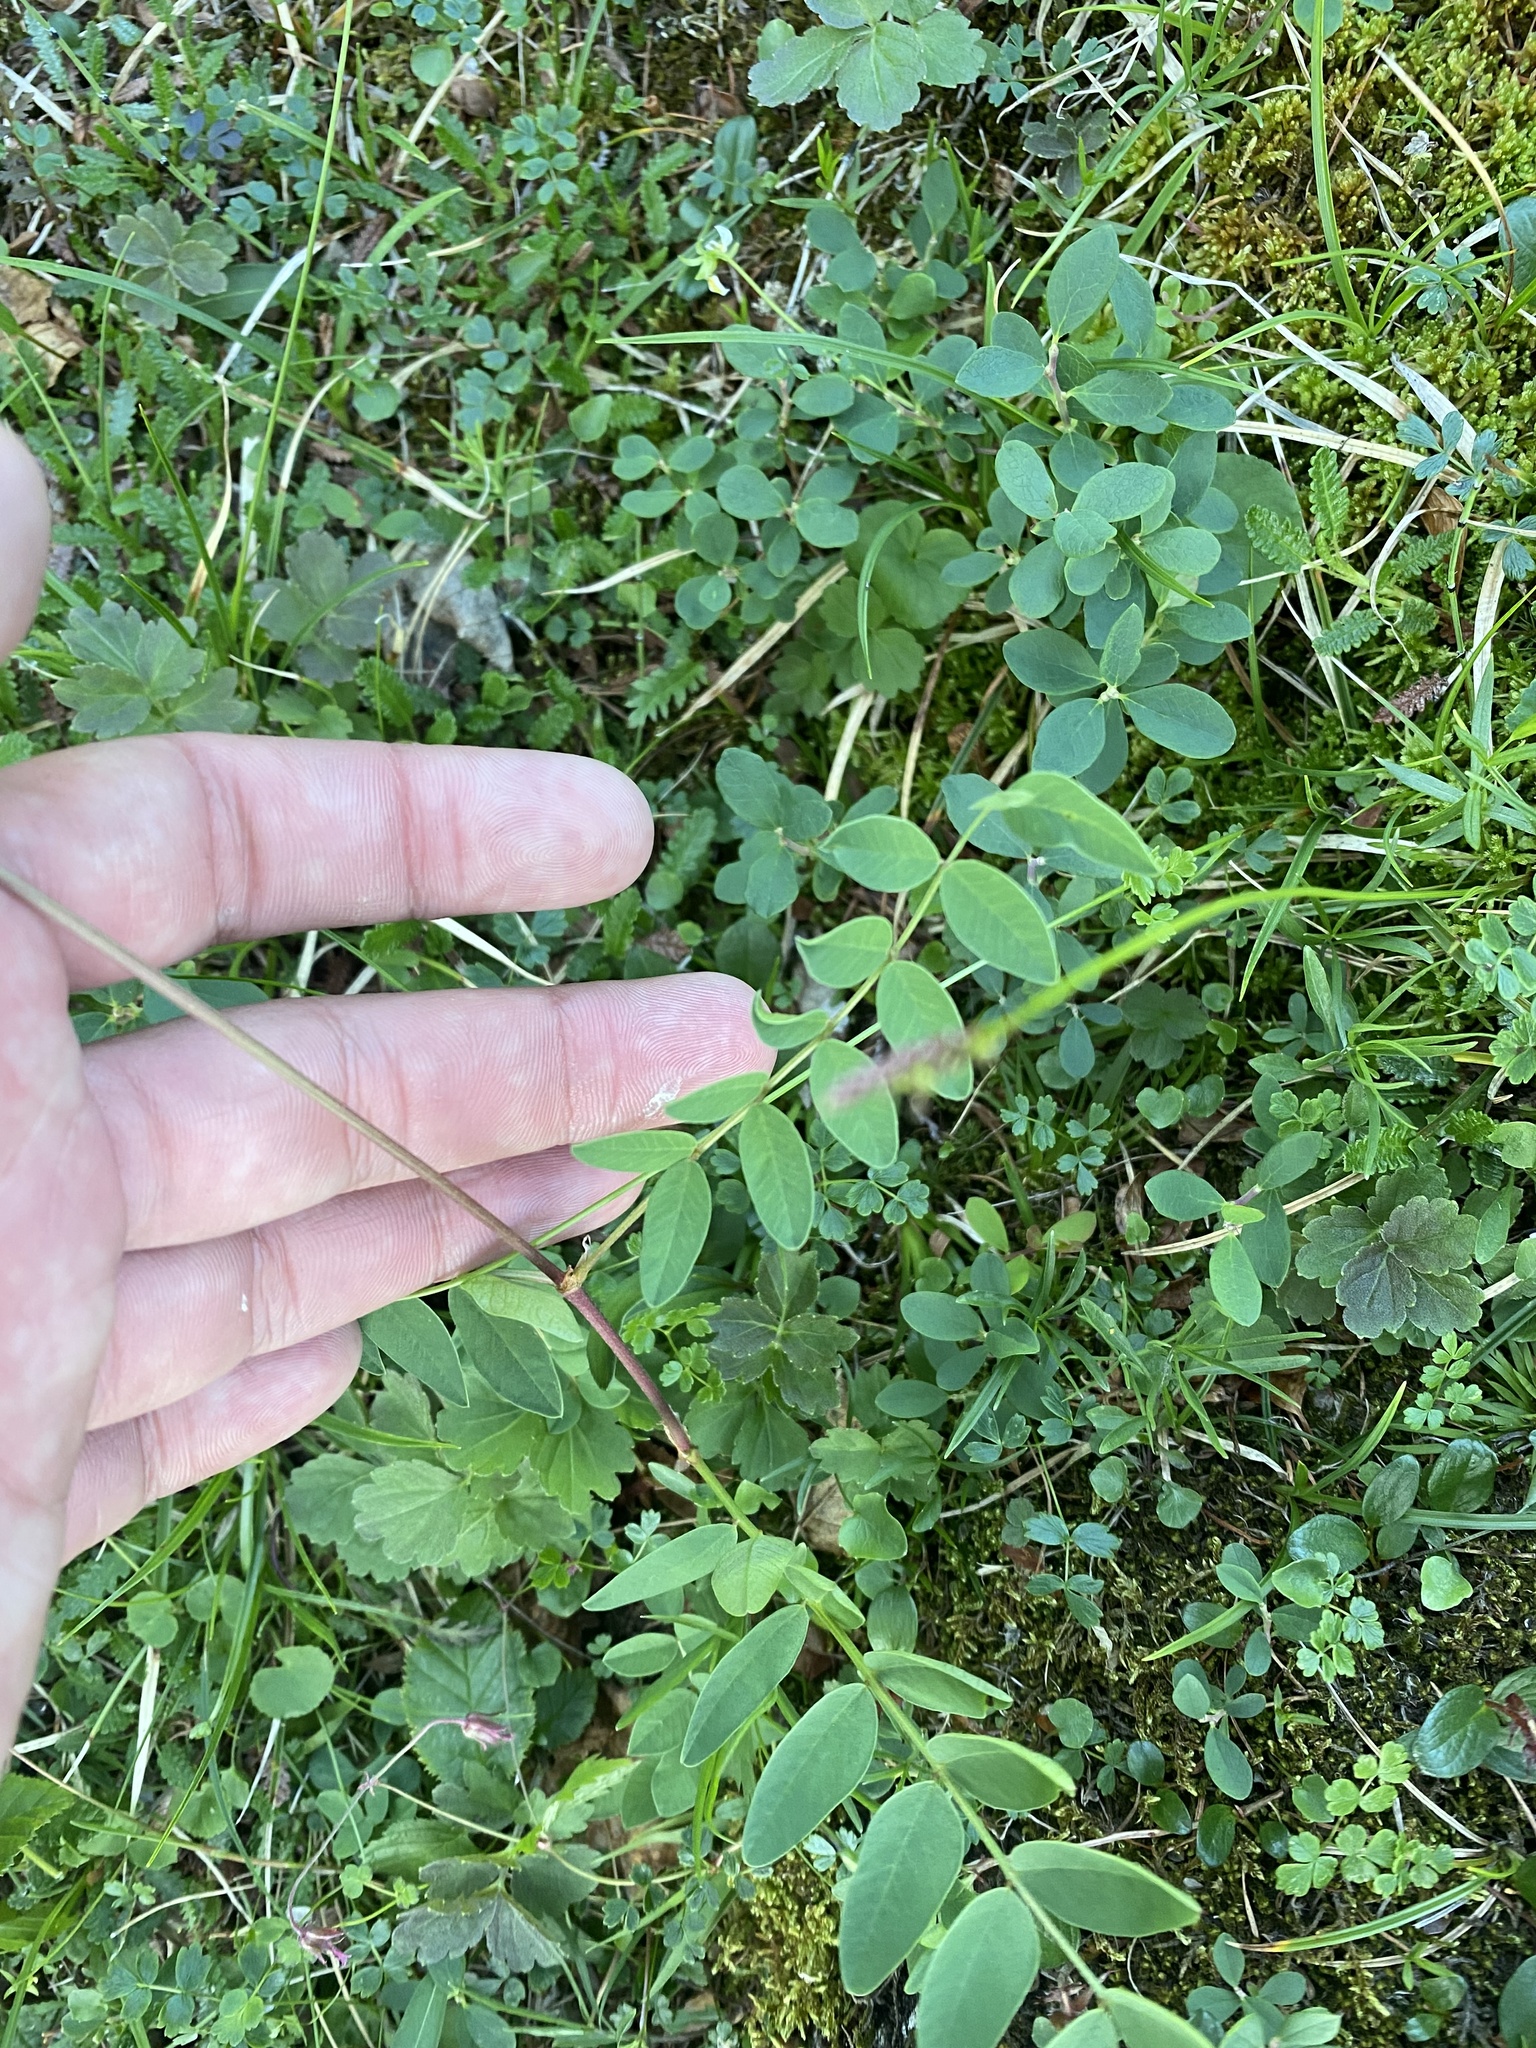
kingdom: Plantae
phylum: Tracheophyta
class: Magnoliopsida
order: Fabales
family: Fabaceae
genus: Hedysarum
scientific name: Hedysarum hedysaroides
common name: Alpine french-honeysuckle
